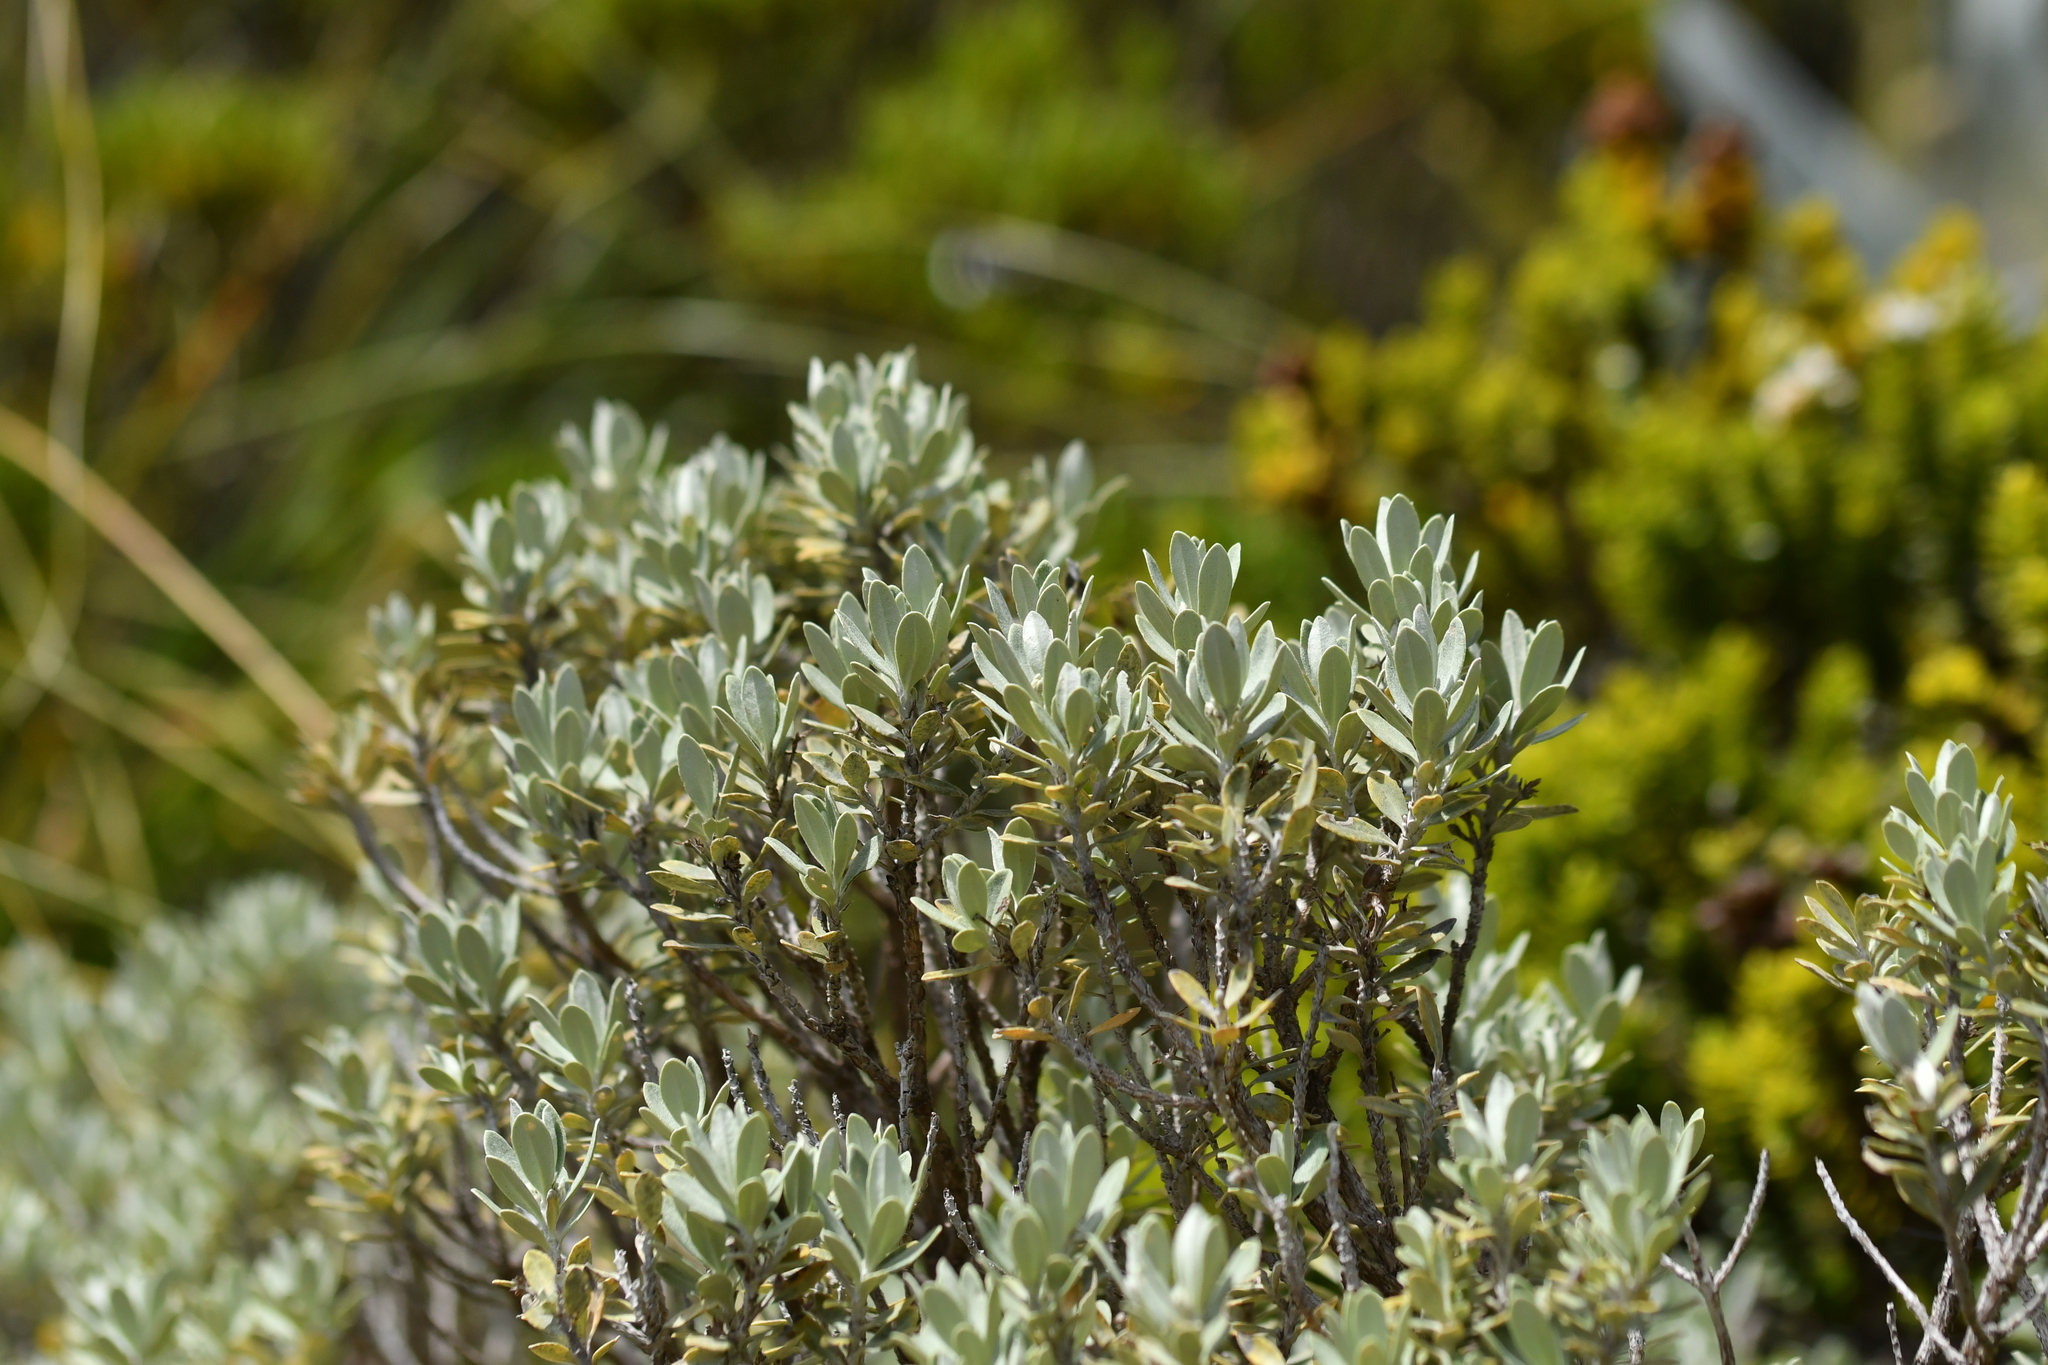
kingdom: Plantae
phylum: Tracheophyta
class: Magnoliopsida
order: Asterales
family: Asteraceae
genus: Olearia
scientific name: Olearia moschata
